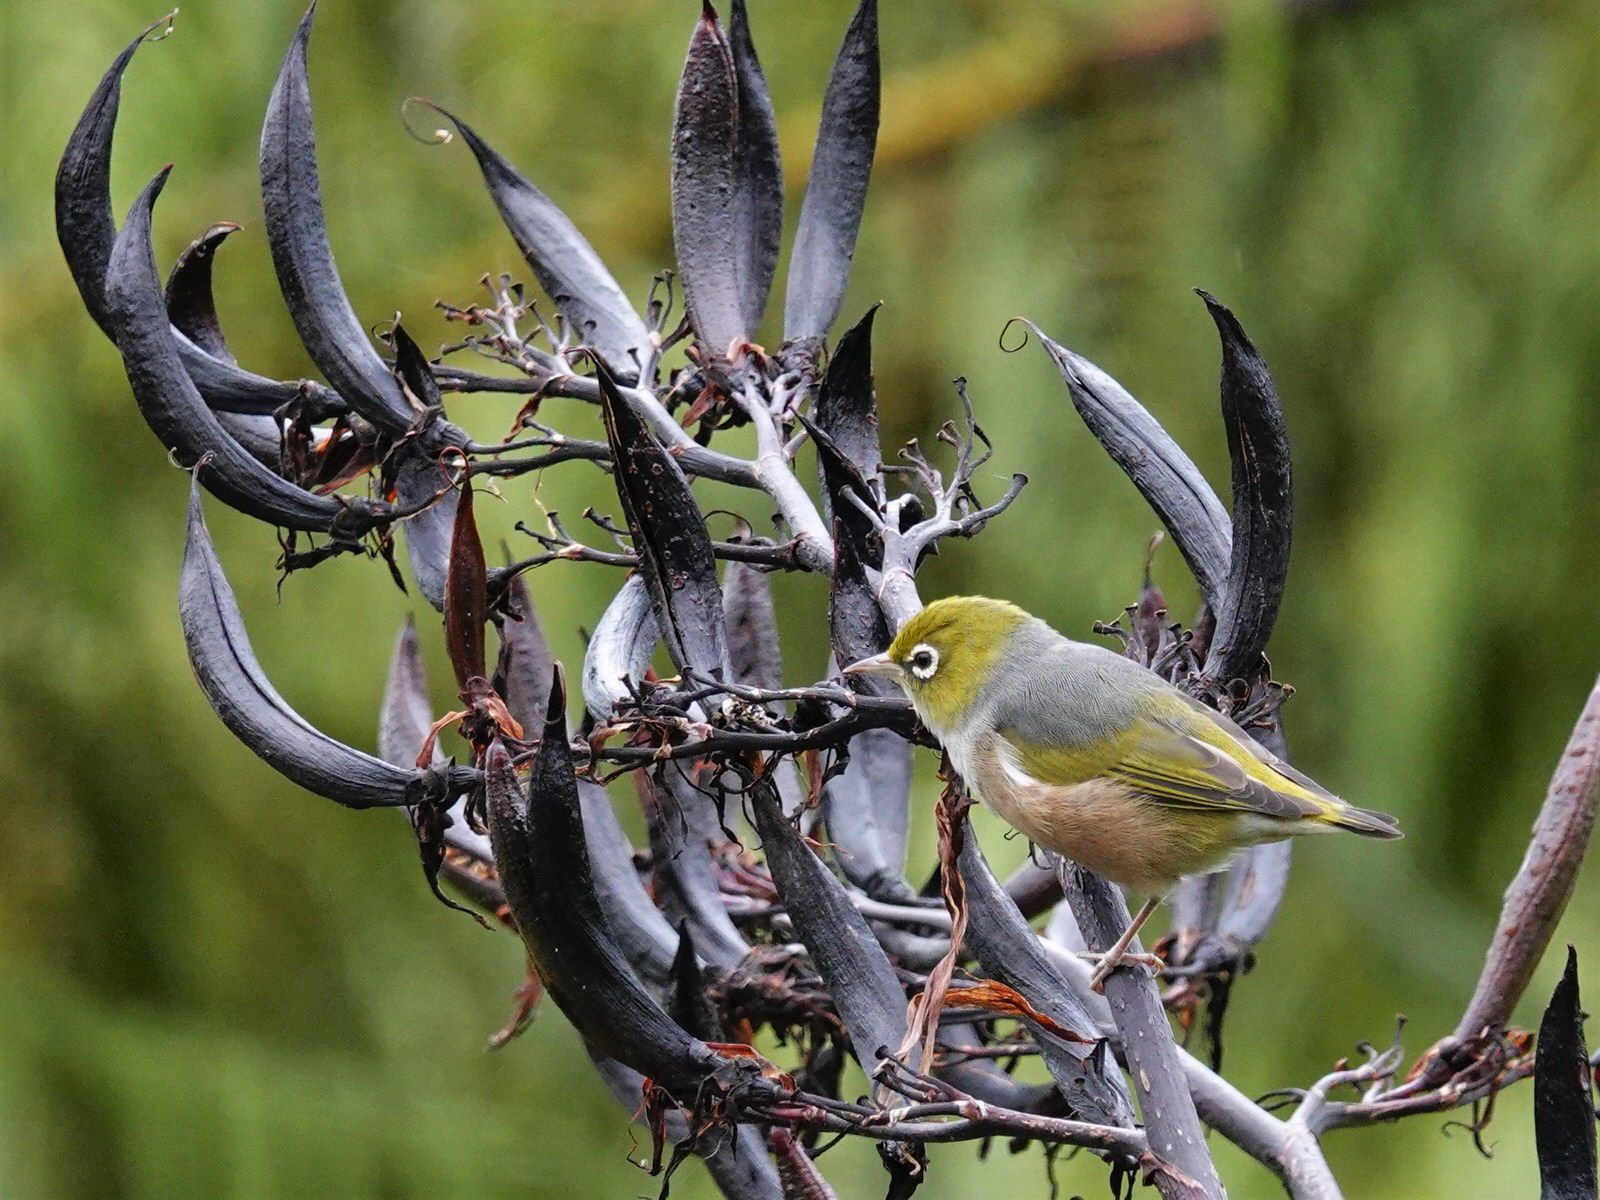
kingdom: Animalia
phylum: Chordata
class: Aves
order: Passeriformes
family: Zosteropidae
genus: Zosterops
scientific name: Zosterops lateralis
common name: Silvereye
